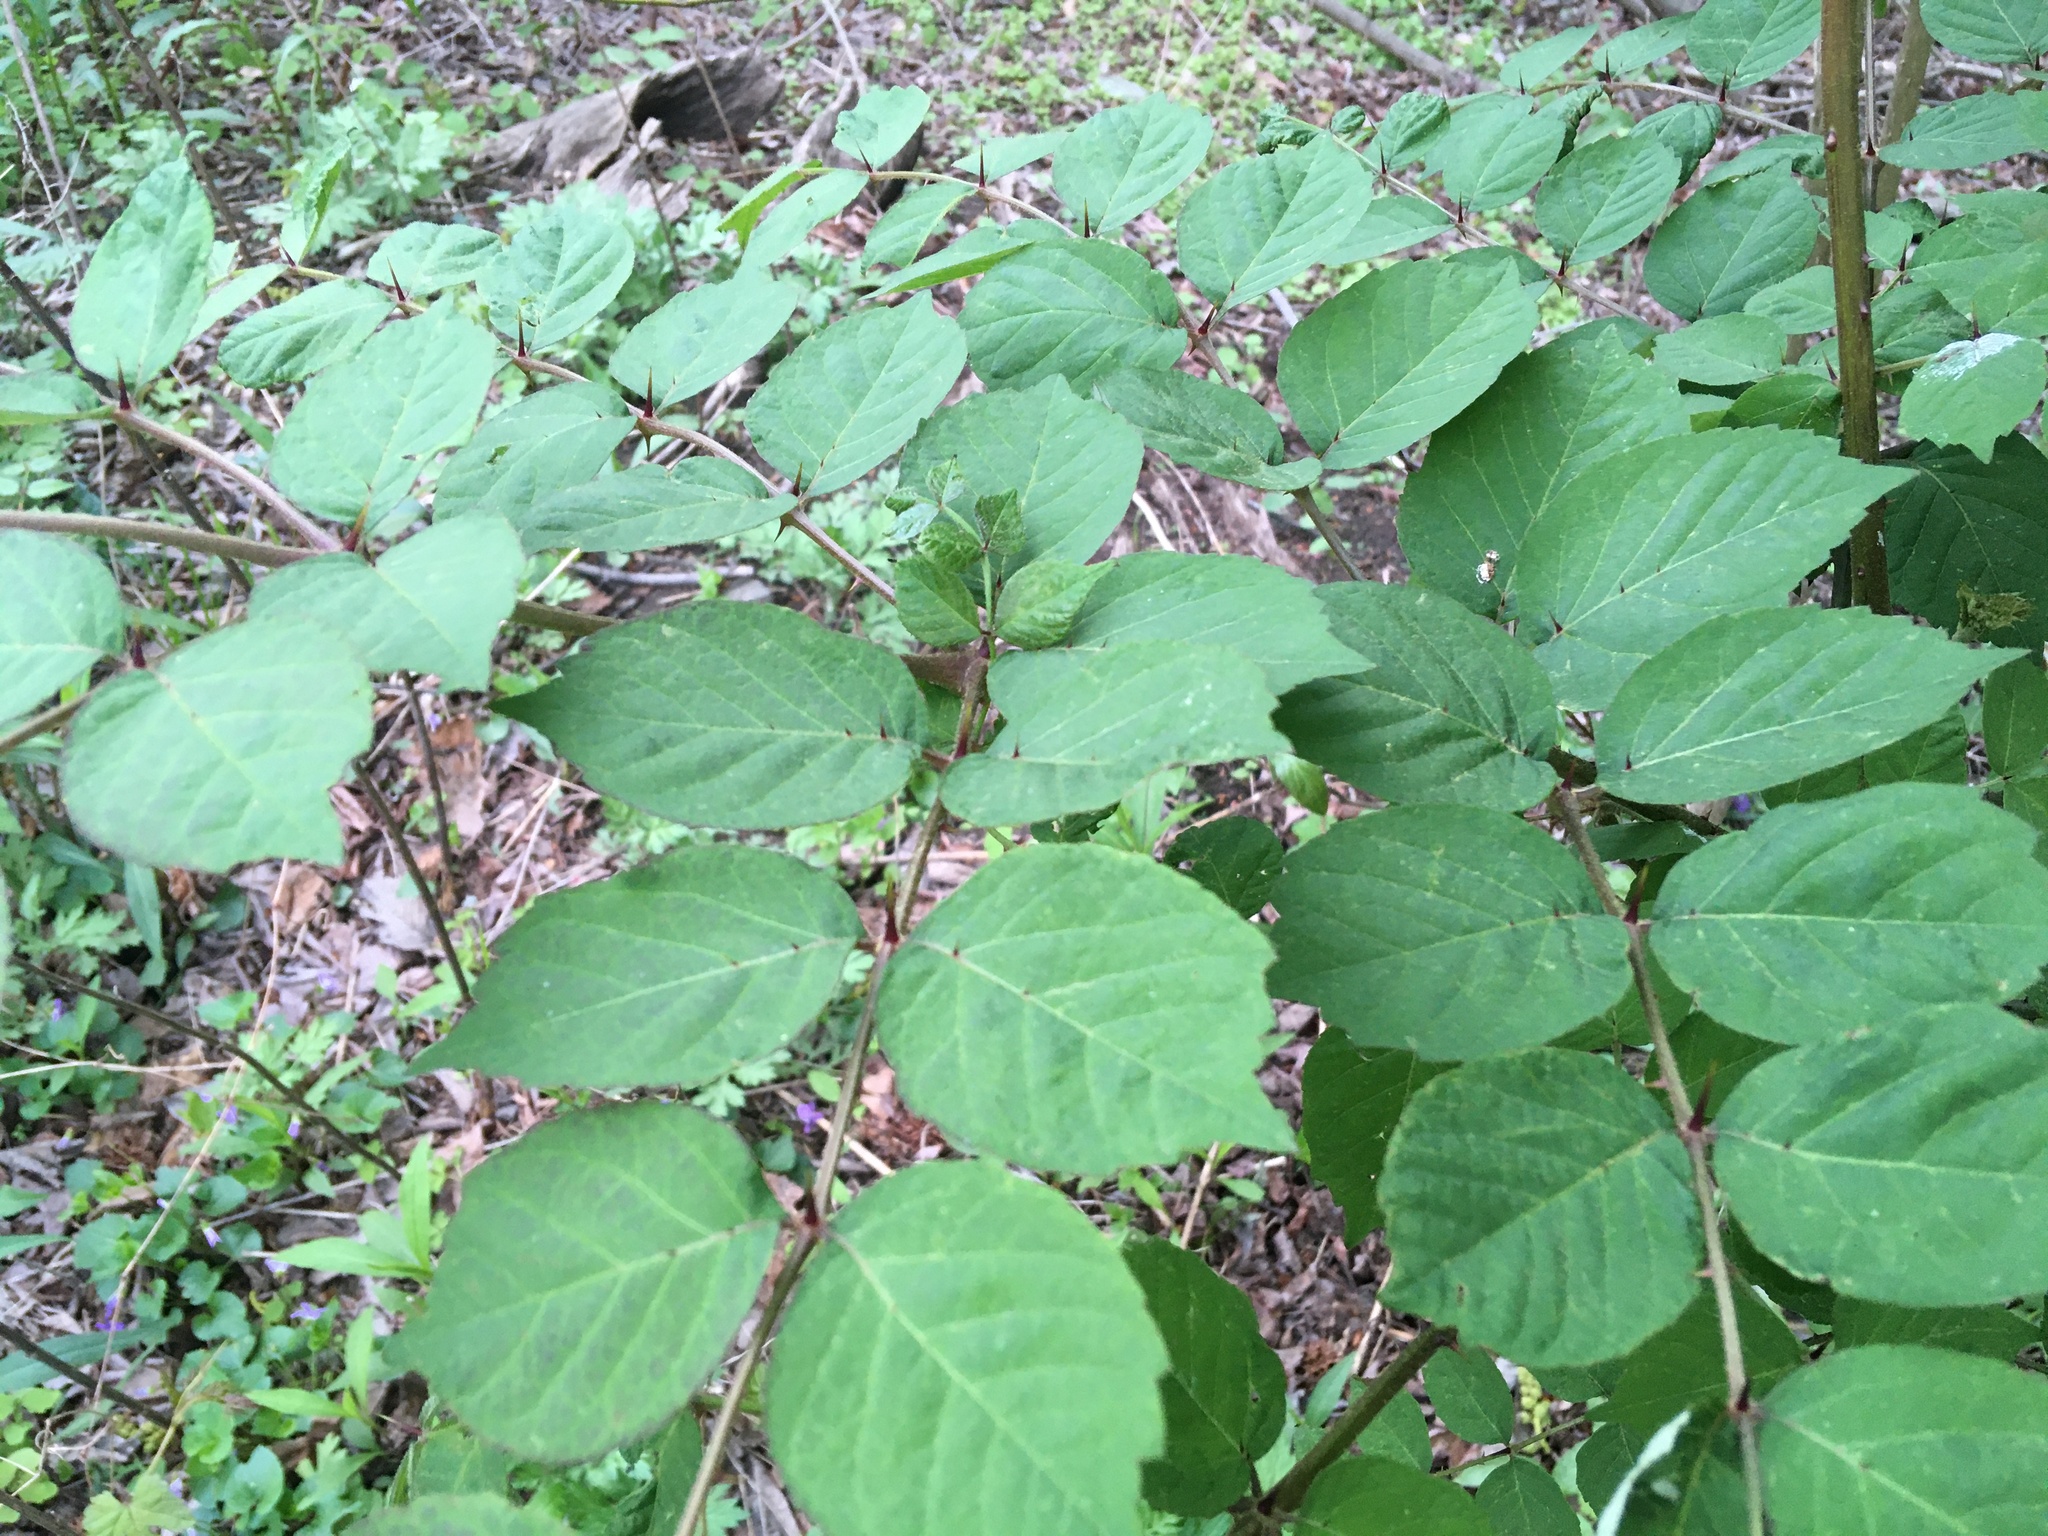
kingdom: Plantae
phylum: Tracheophyta
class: Magnoliopsida
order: Apiales
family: Araliaceae
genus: Aralia
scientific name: Aralia elata
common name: Japanese angelica-tree
